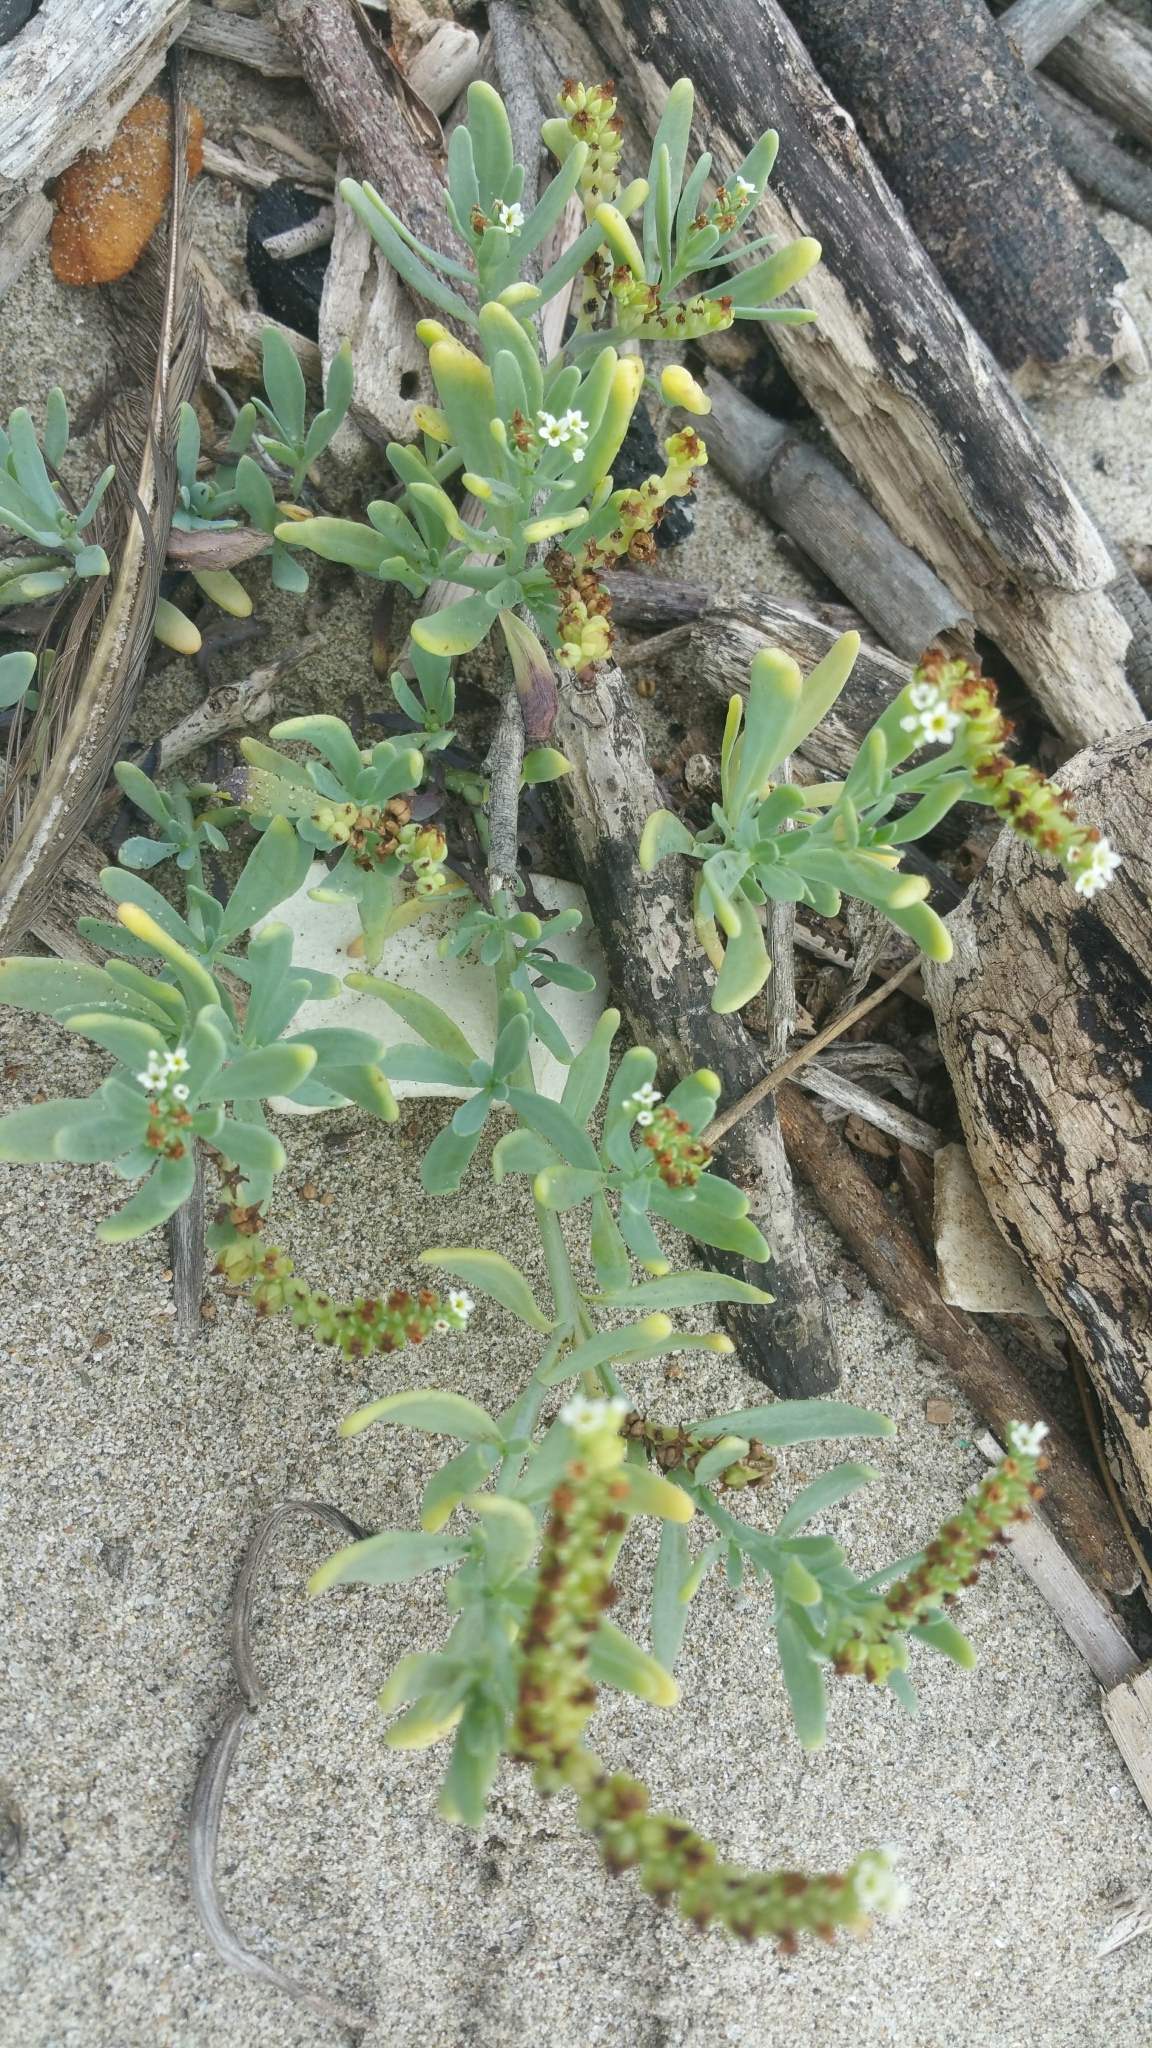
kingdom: Plantae
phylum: Tracheophyta
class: Magnoliopsida
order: Boraginales
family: Heliotropiaceae
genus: Heliotropium
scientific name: Heliotropium curassavicum
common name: Seaside heliotrope
